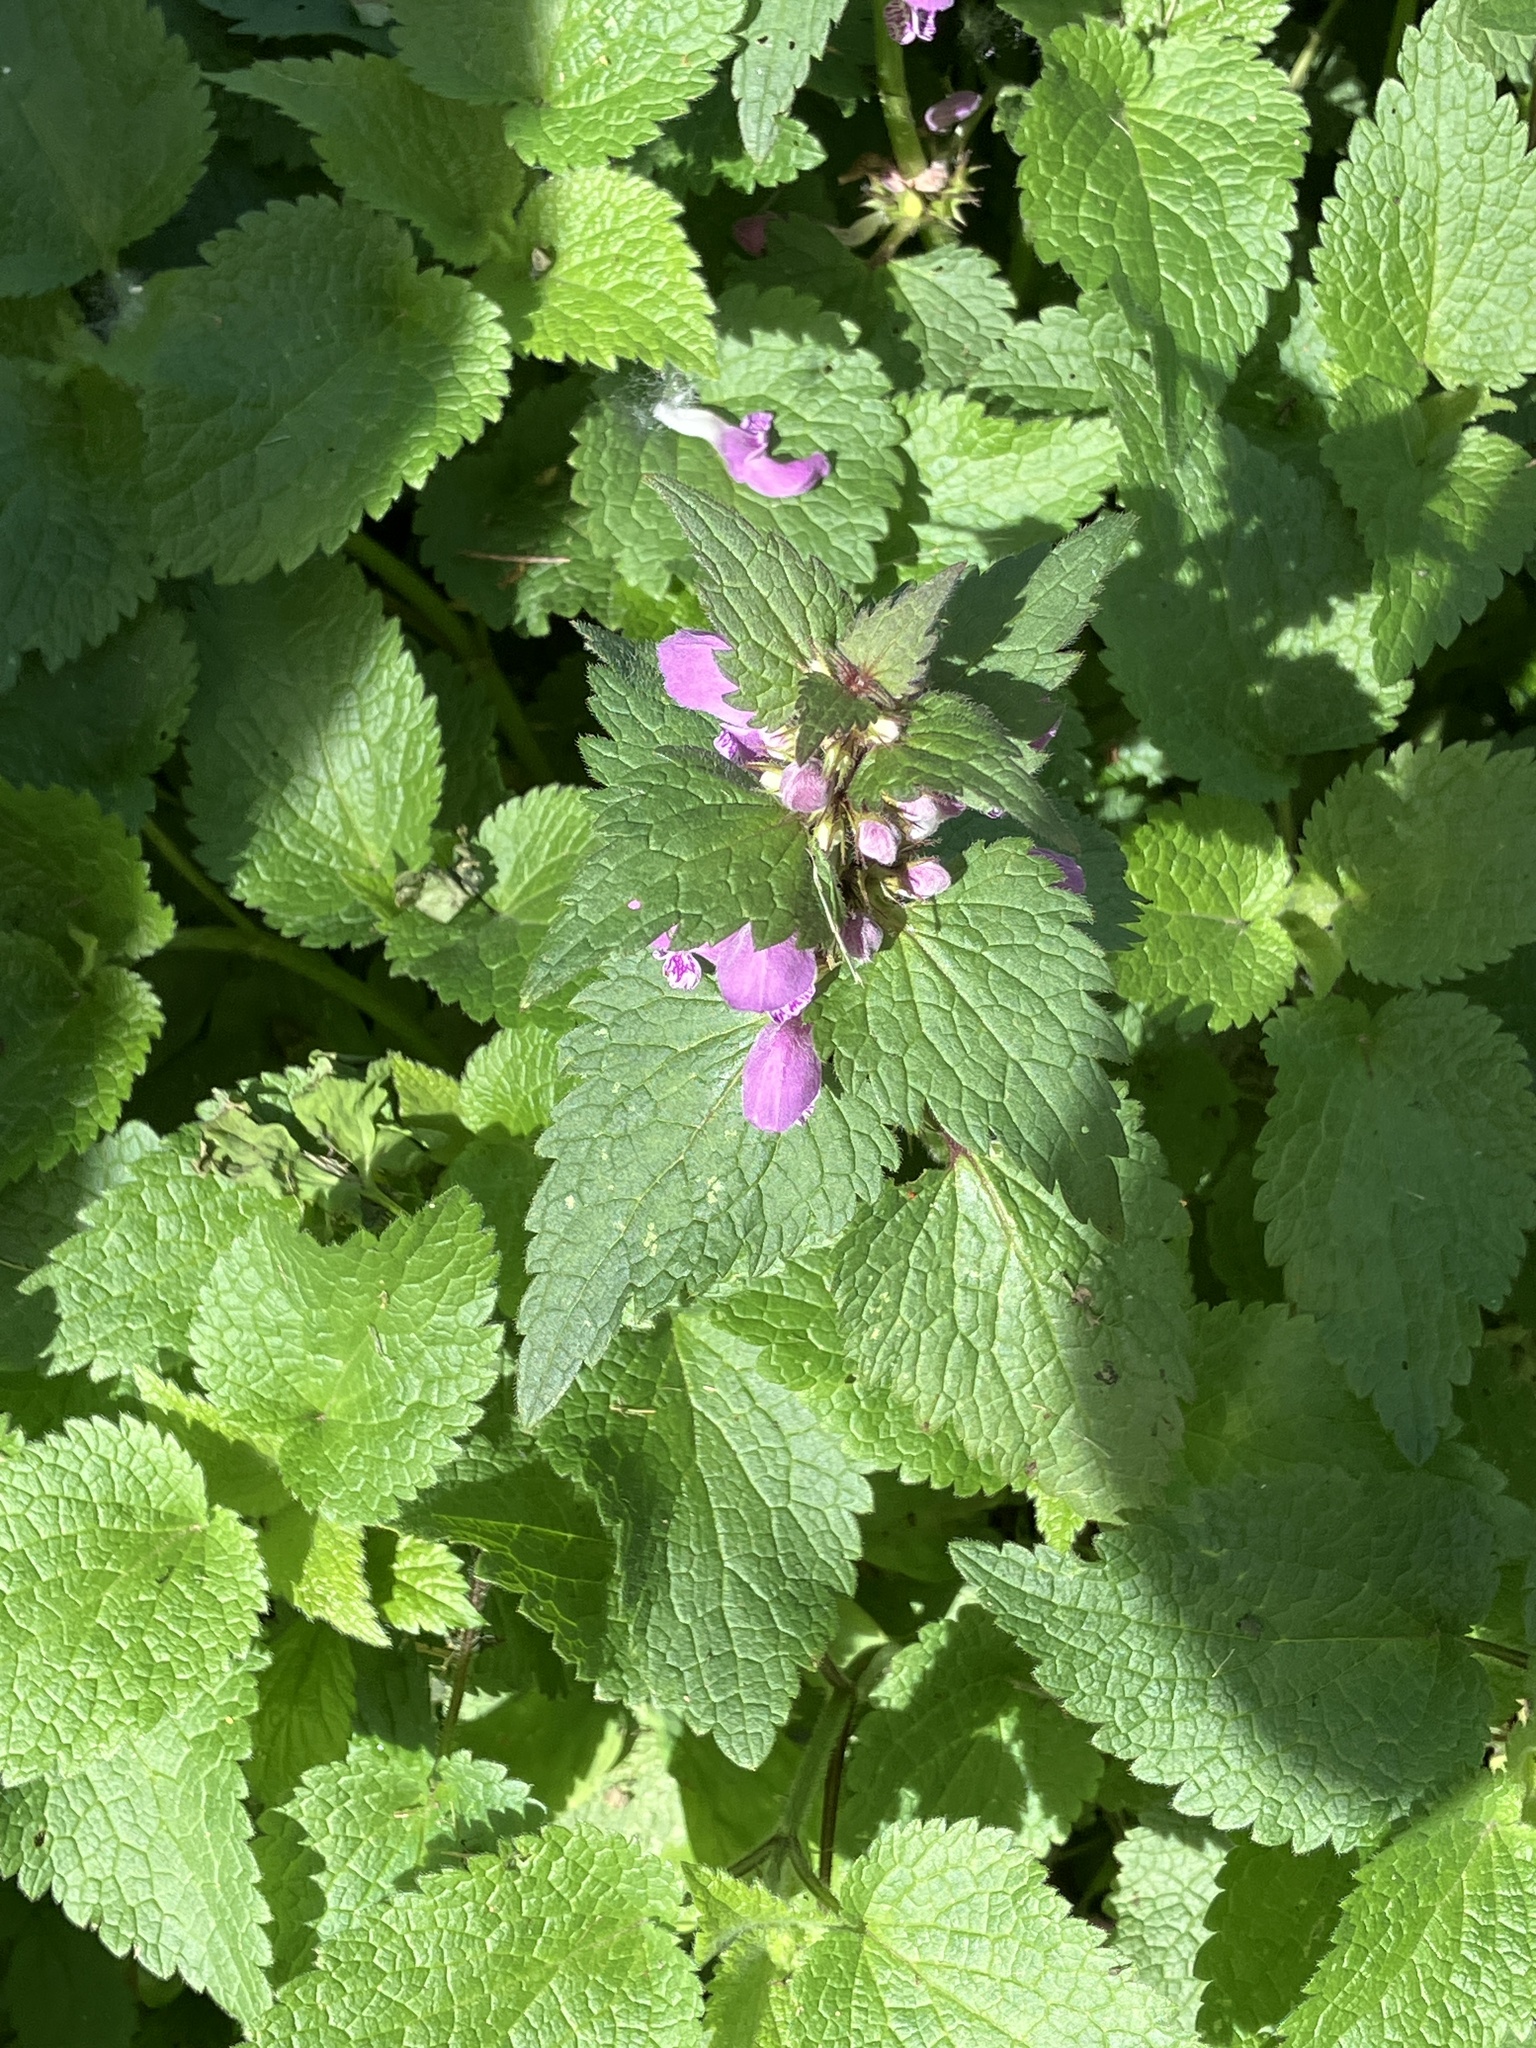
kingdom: Plantae
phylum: Tracheophyta
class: Magnoliopsida
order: Lamiales
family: Lamiaceae
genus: Lamium
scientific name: Lamium maculatum
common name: Spotted dead-nettle
